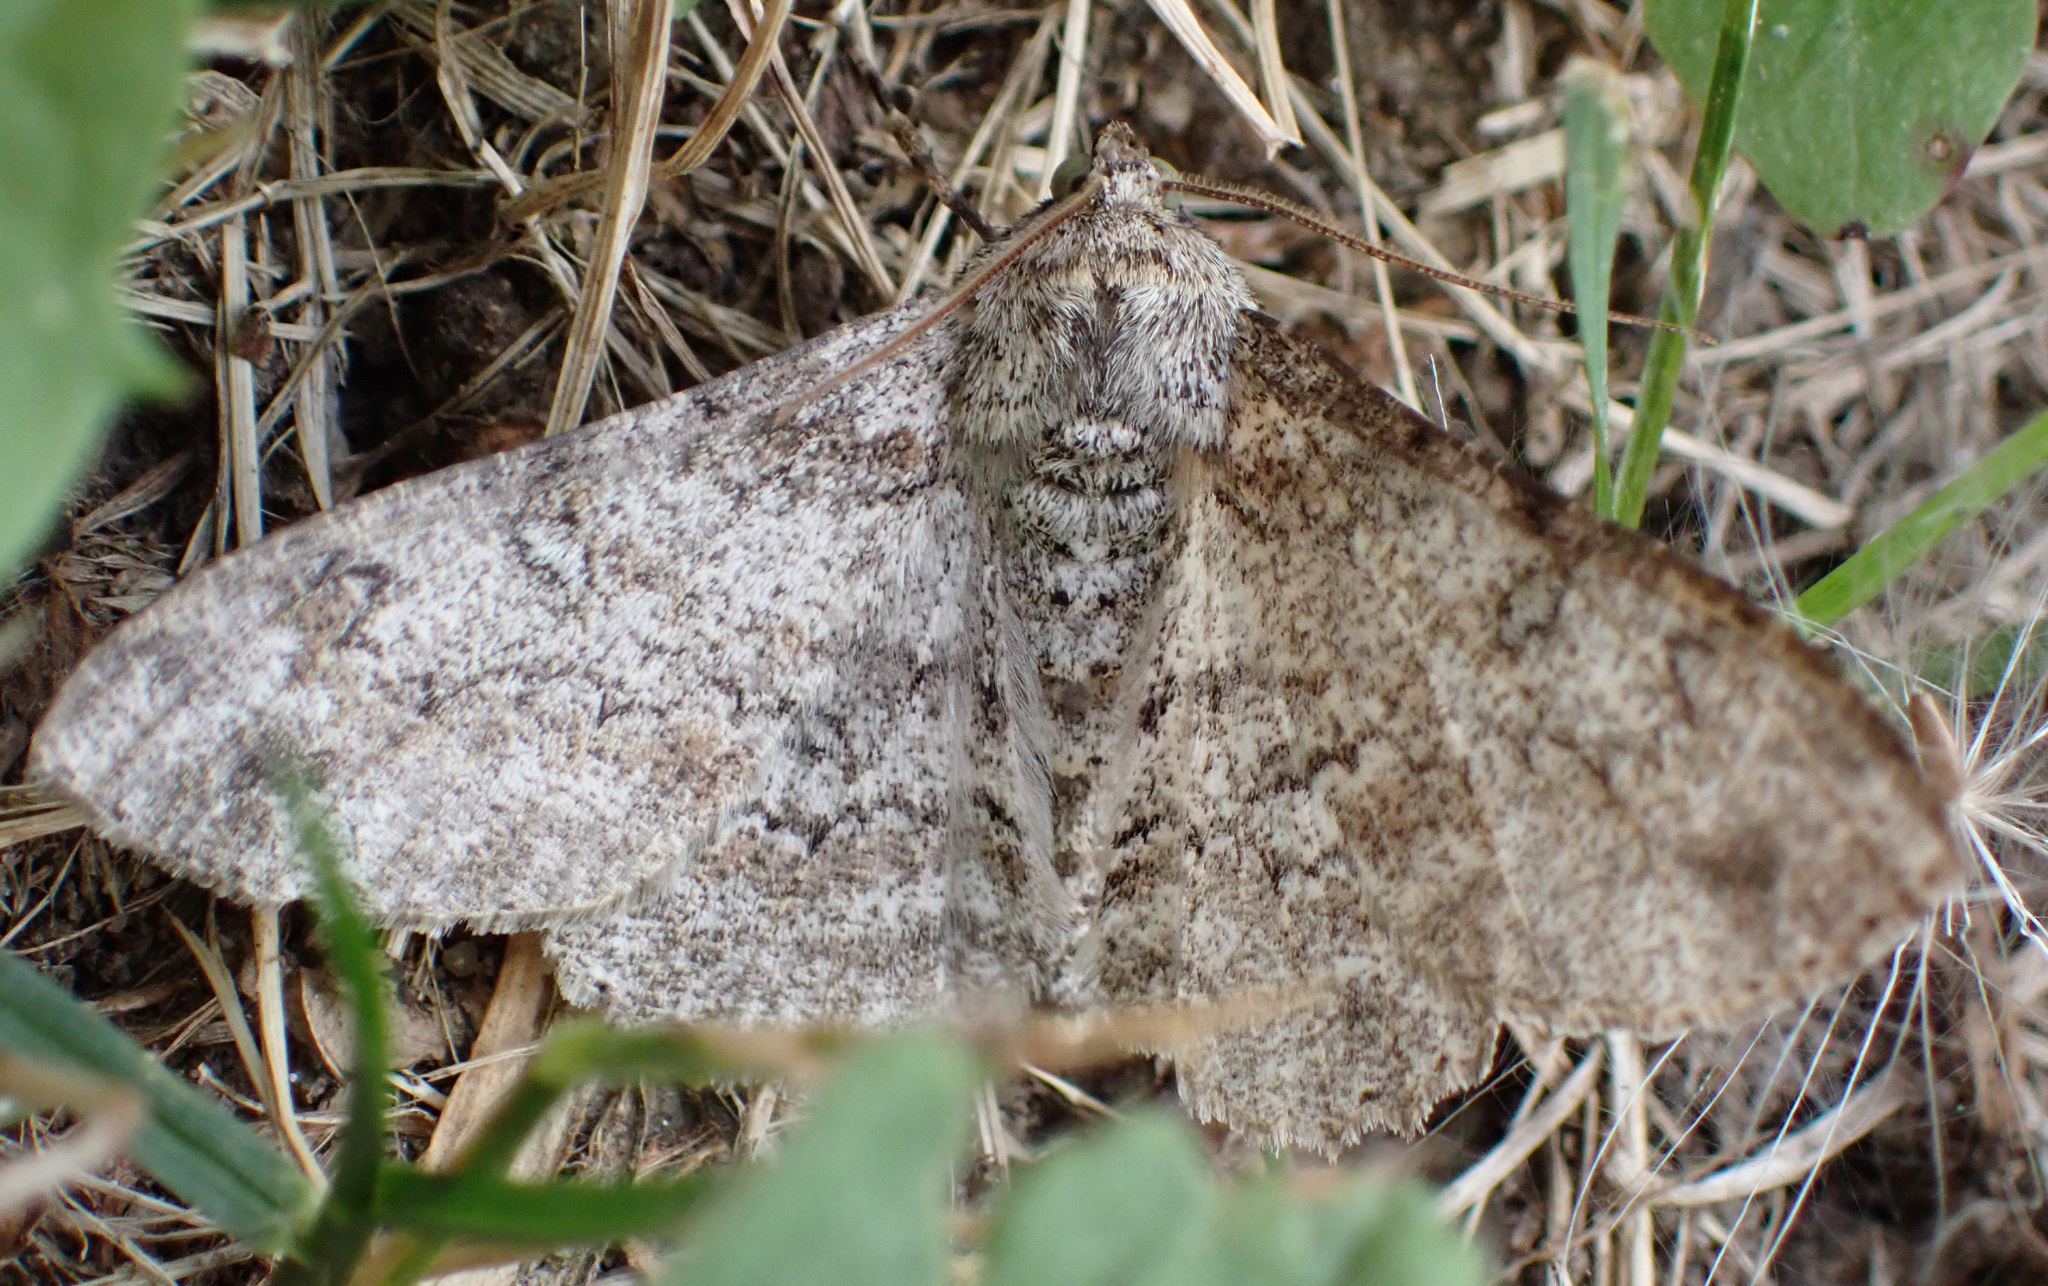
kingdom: Animalia
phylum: Arthropoda
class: Insecta
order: Lepidoptera
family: Geometridae
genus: Ascotis
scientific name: Ascotis selenaria
